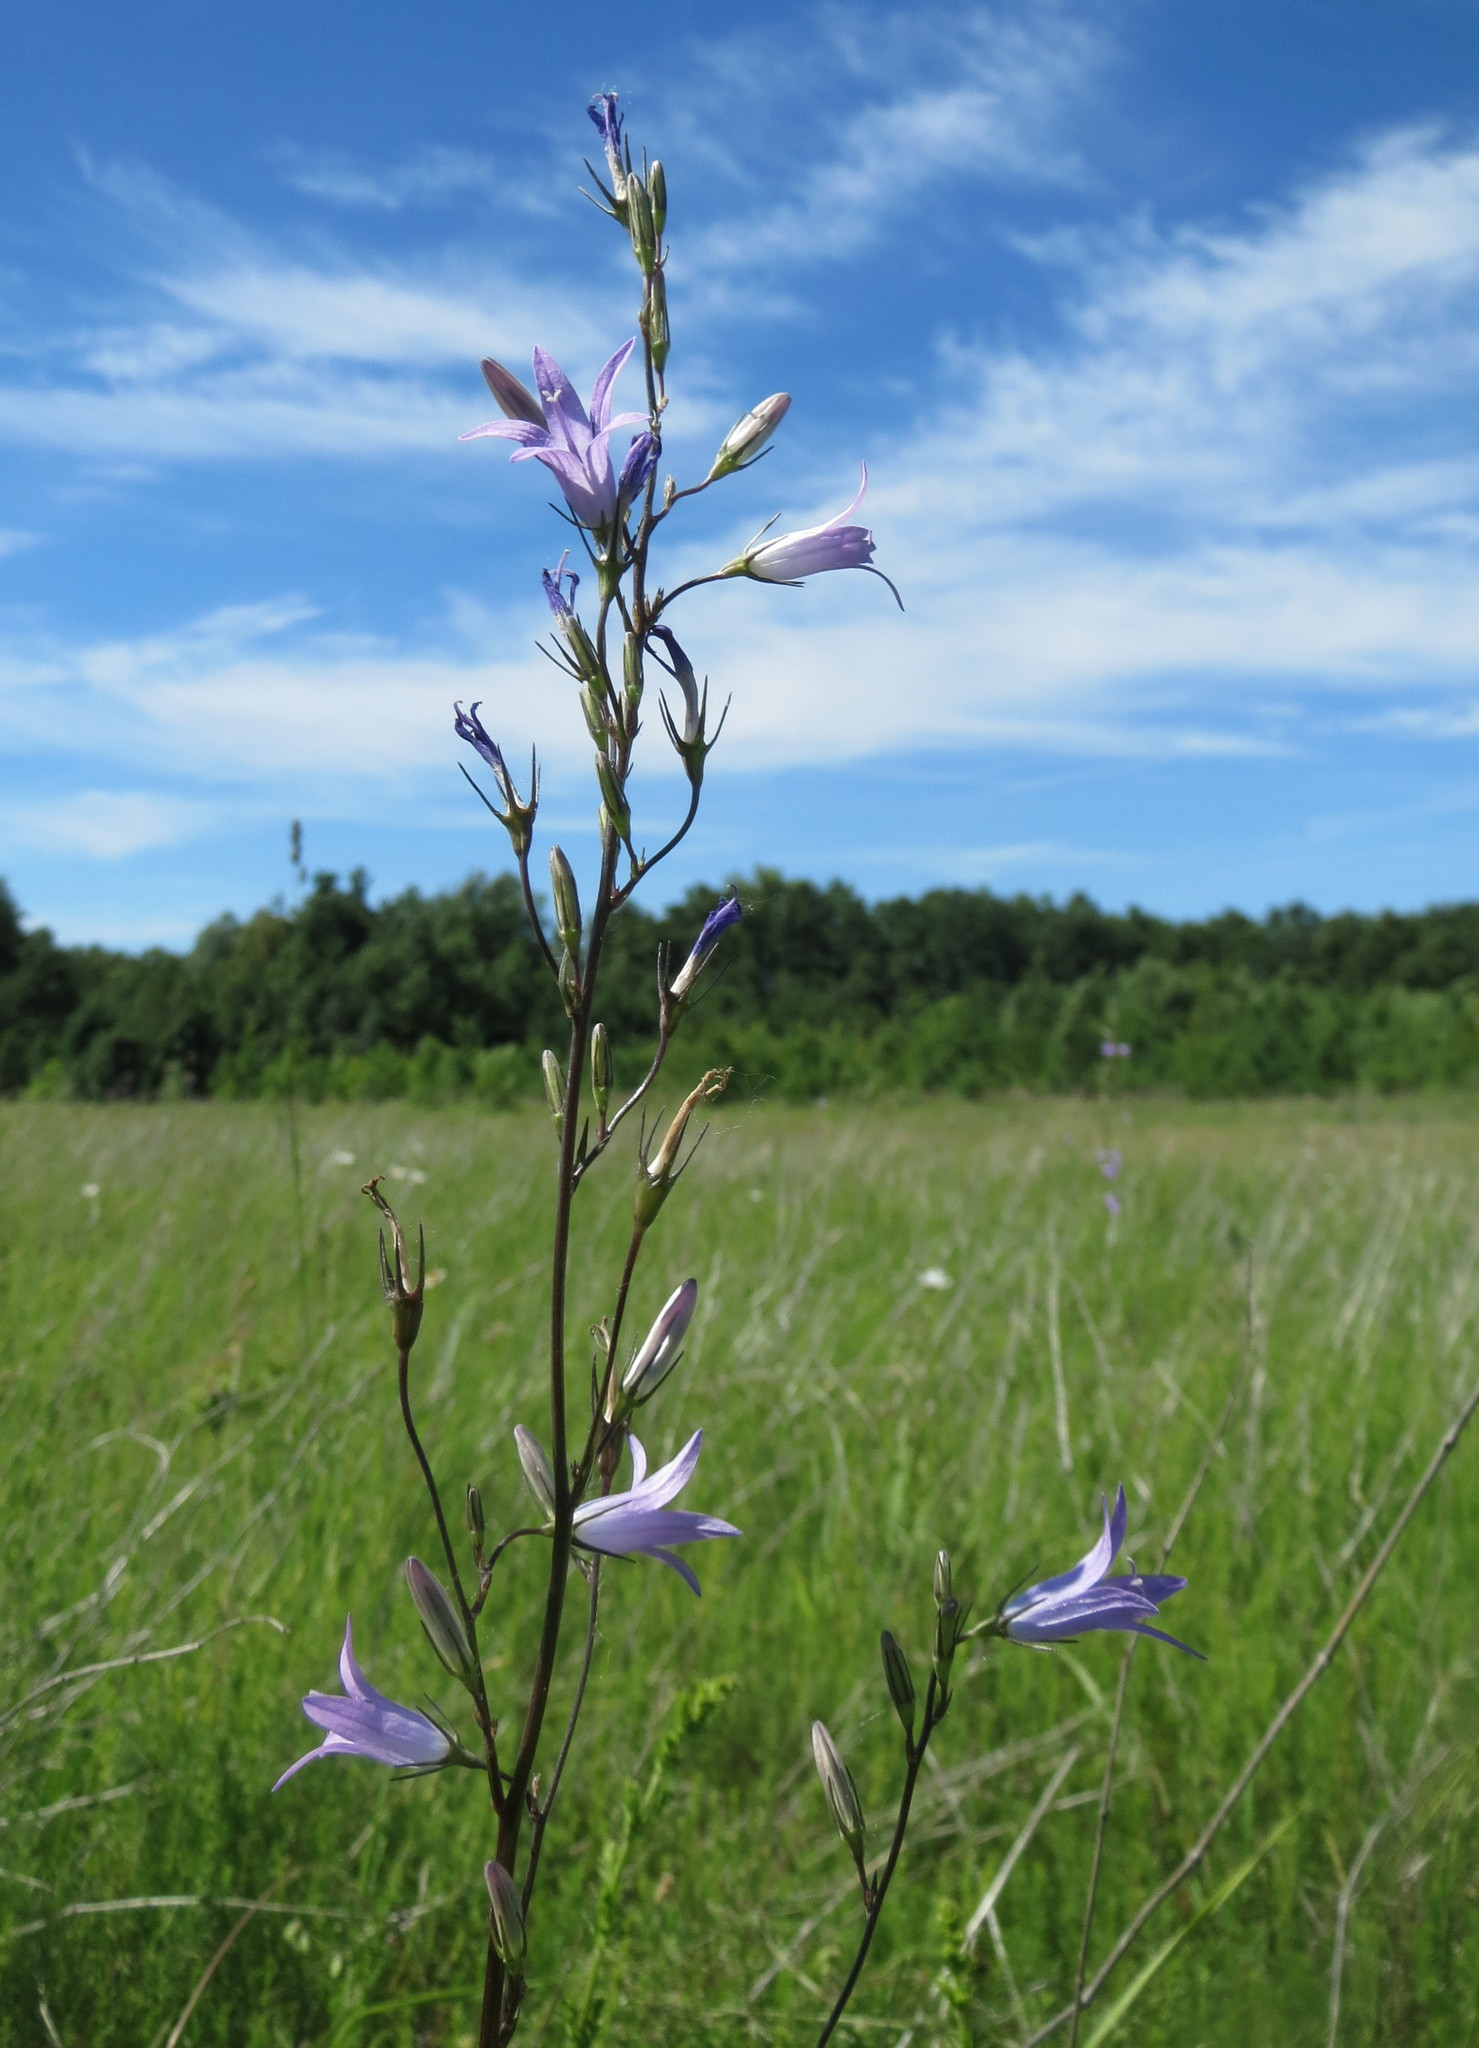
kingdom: Plantae
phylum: Tracheophyta
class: Magnoliopsida
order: Asterales
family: Campanulaceae
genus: Campanula
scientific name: Campanula rapunculus
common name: Rampion bellflower
